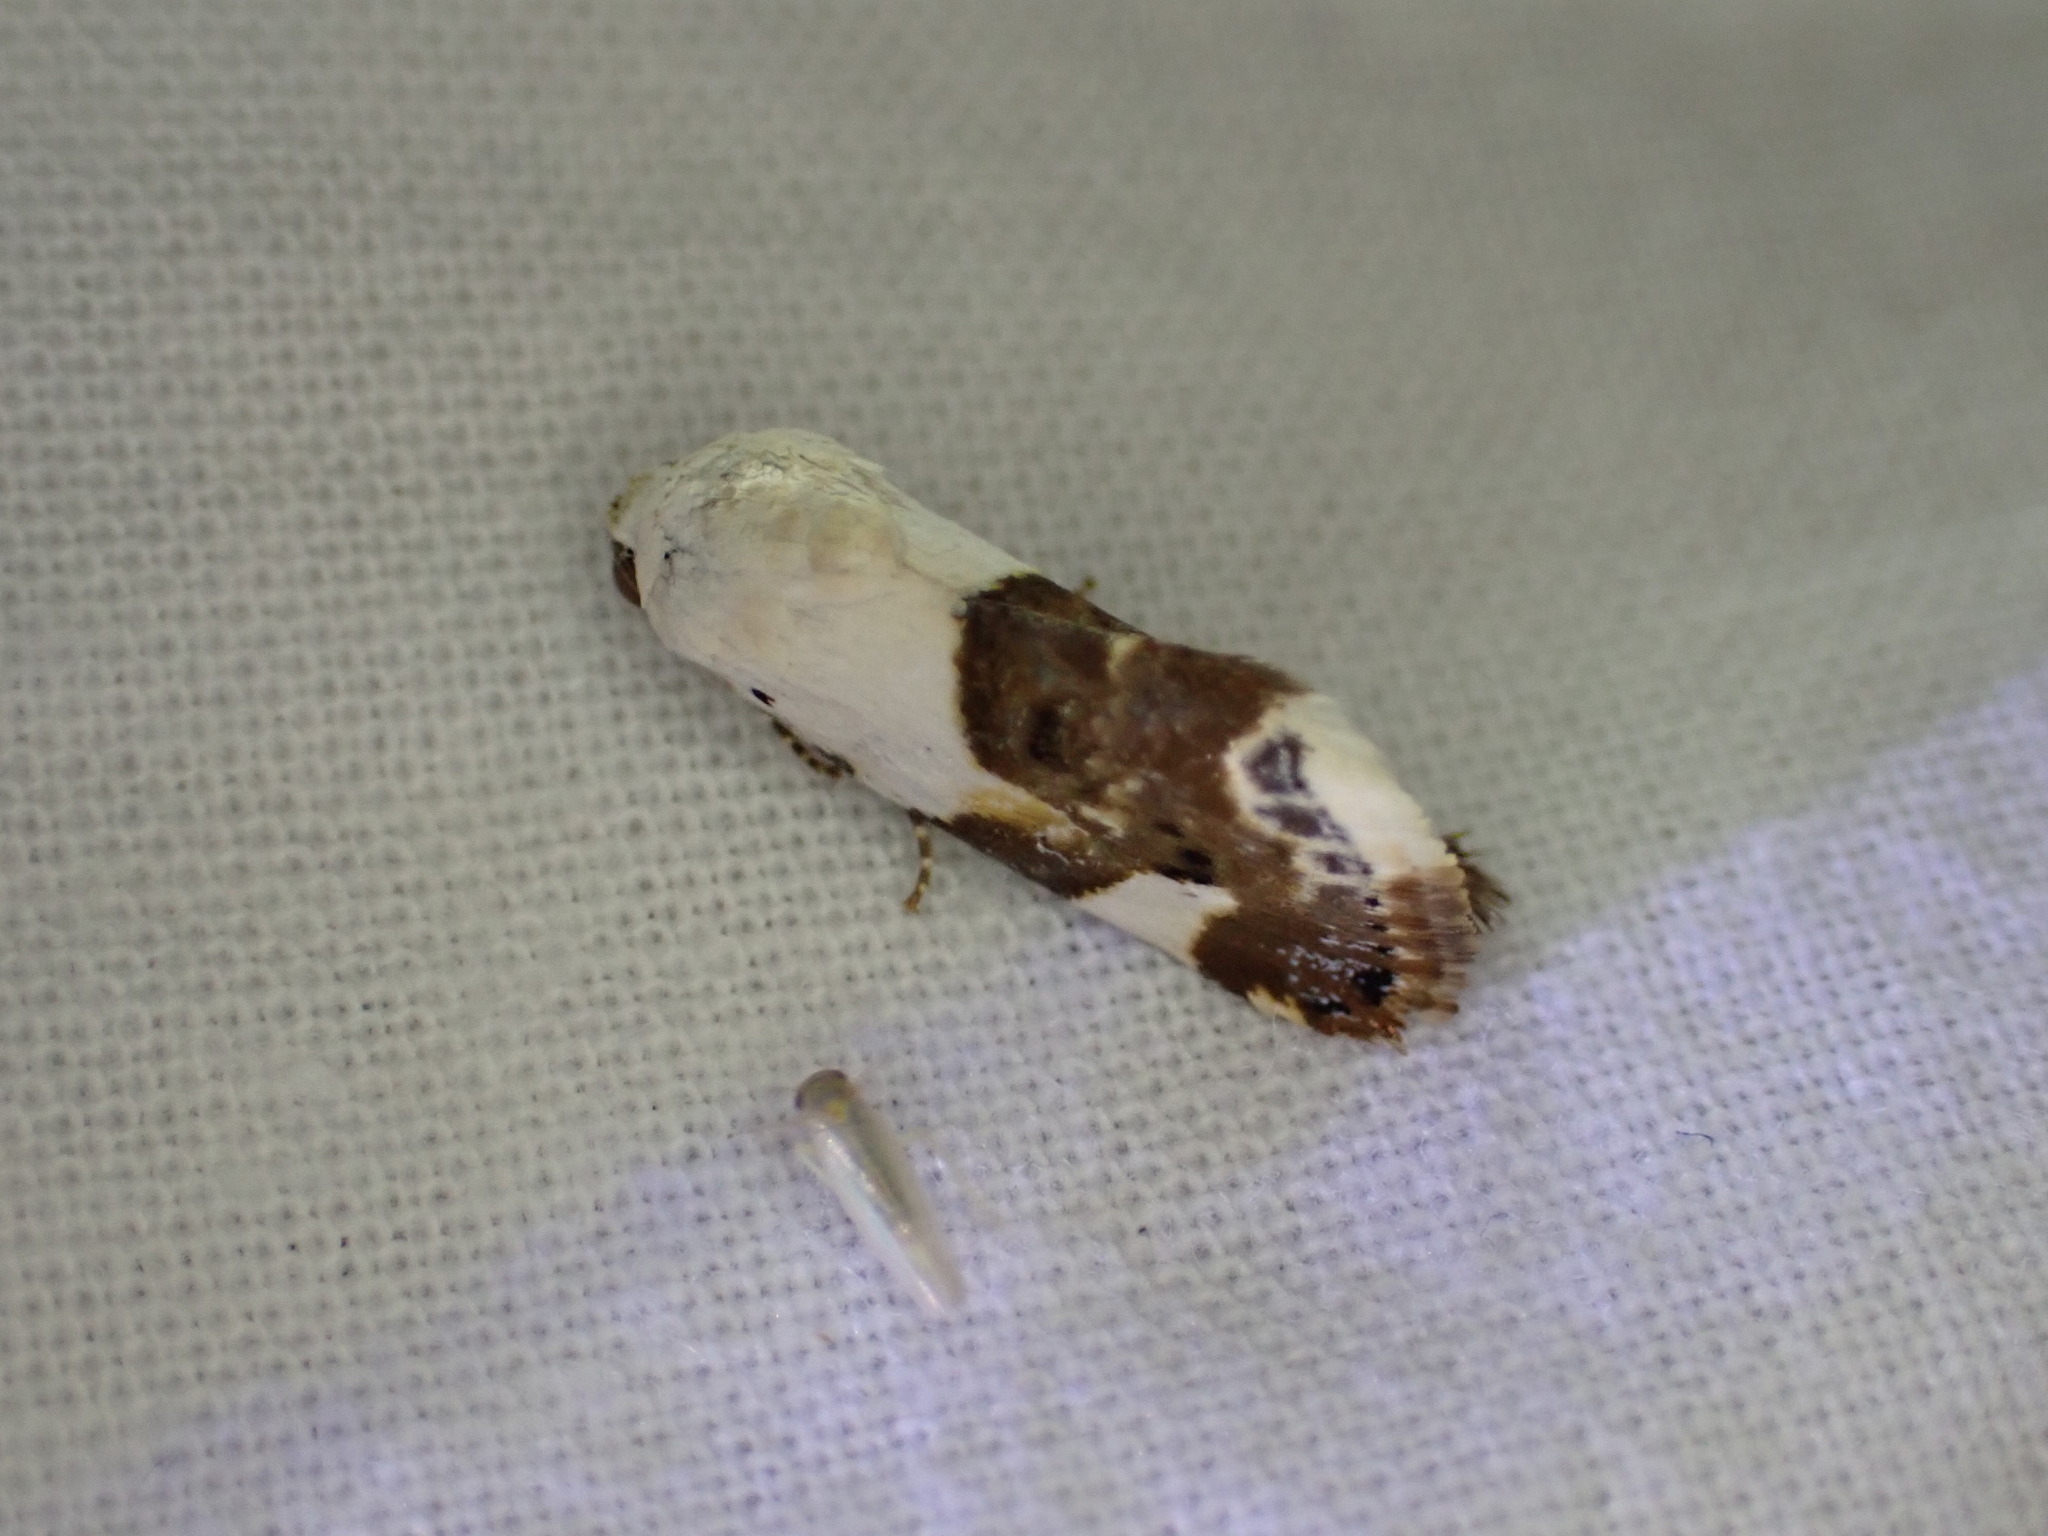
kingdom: Animalia
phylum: Arthropoda
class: Insecta
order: Lepidoptera
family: Noctuidae
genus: Acontia
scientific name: Acontia lucida
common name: Pale shoulder
